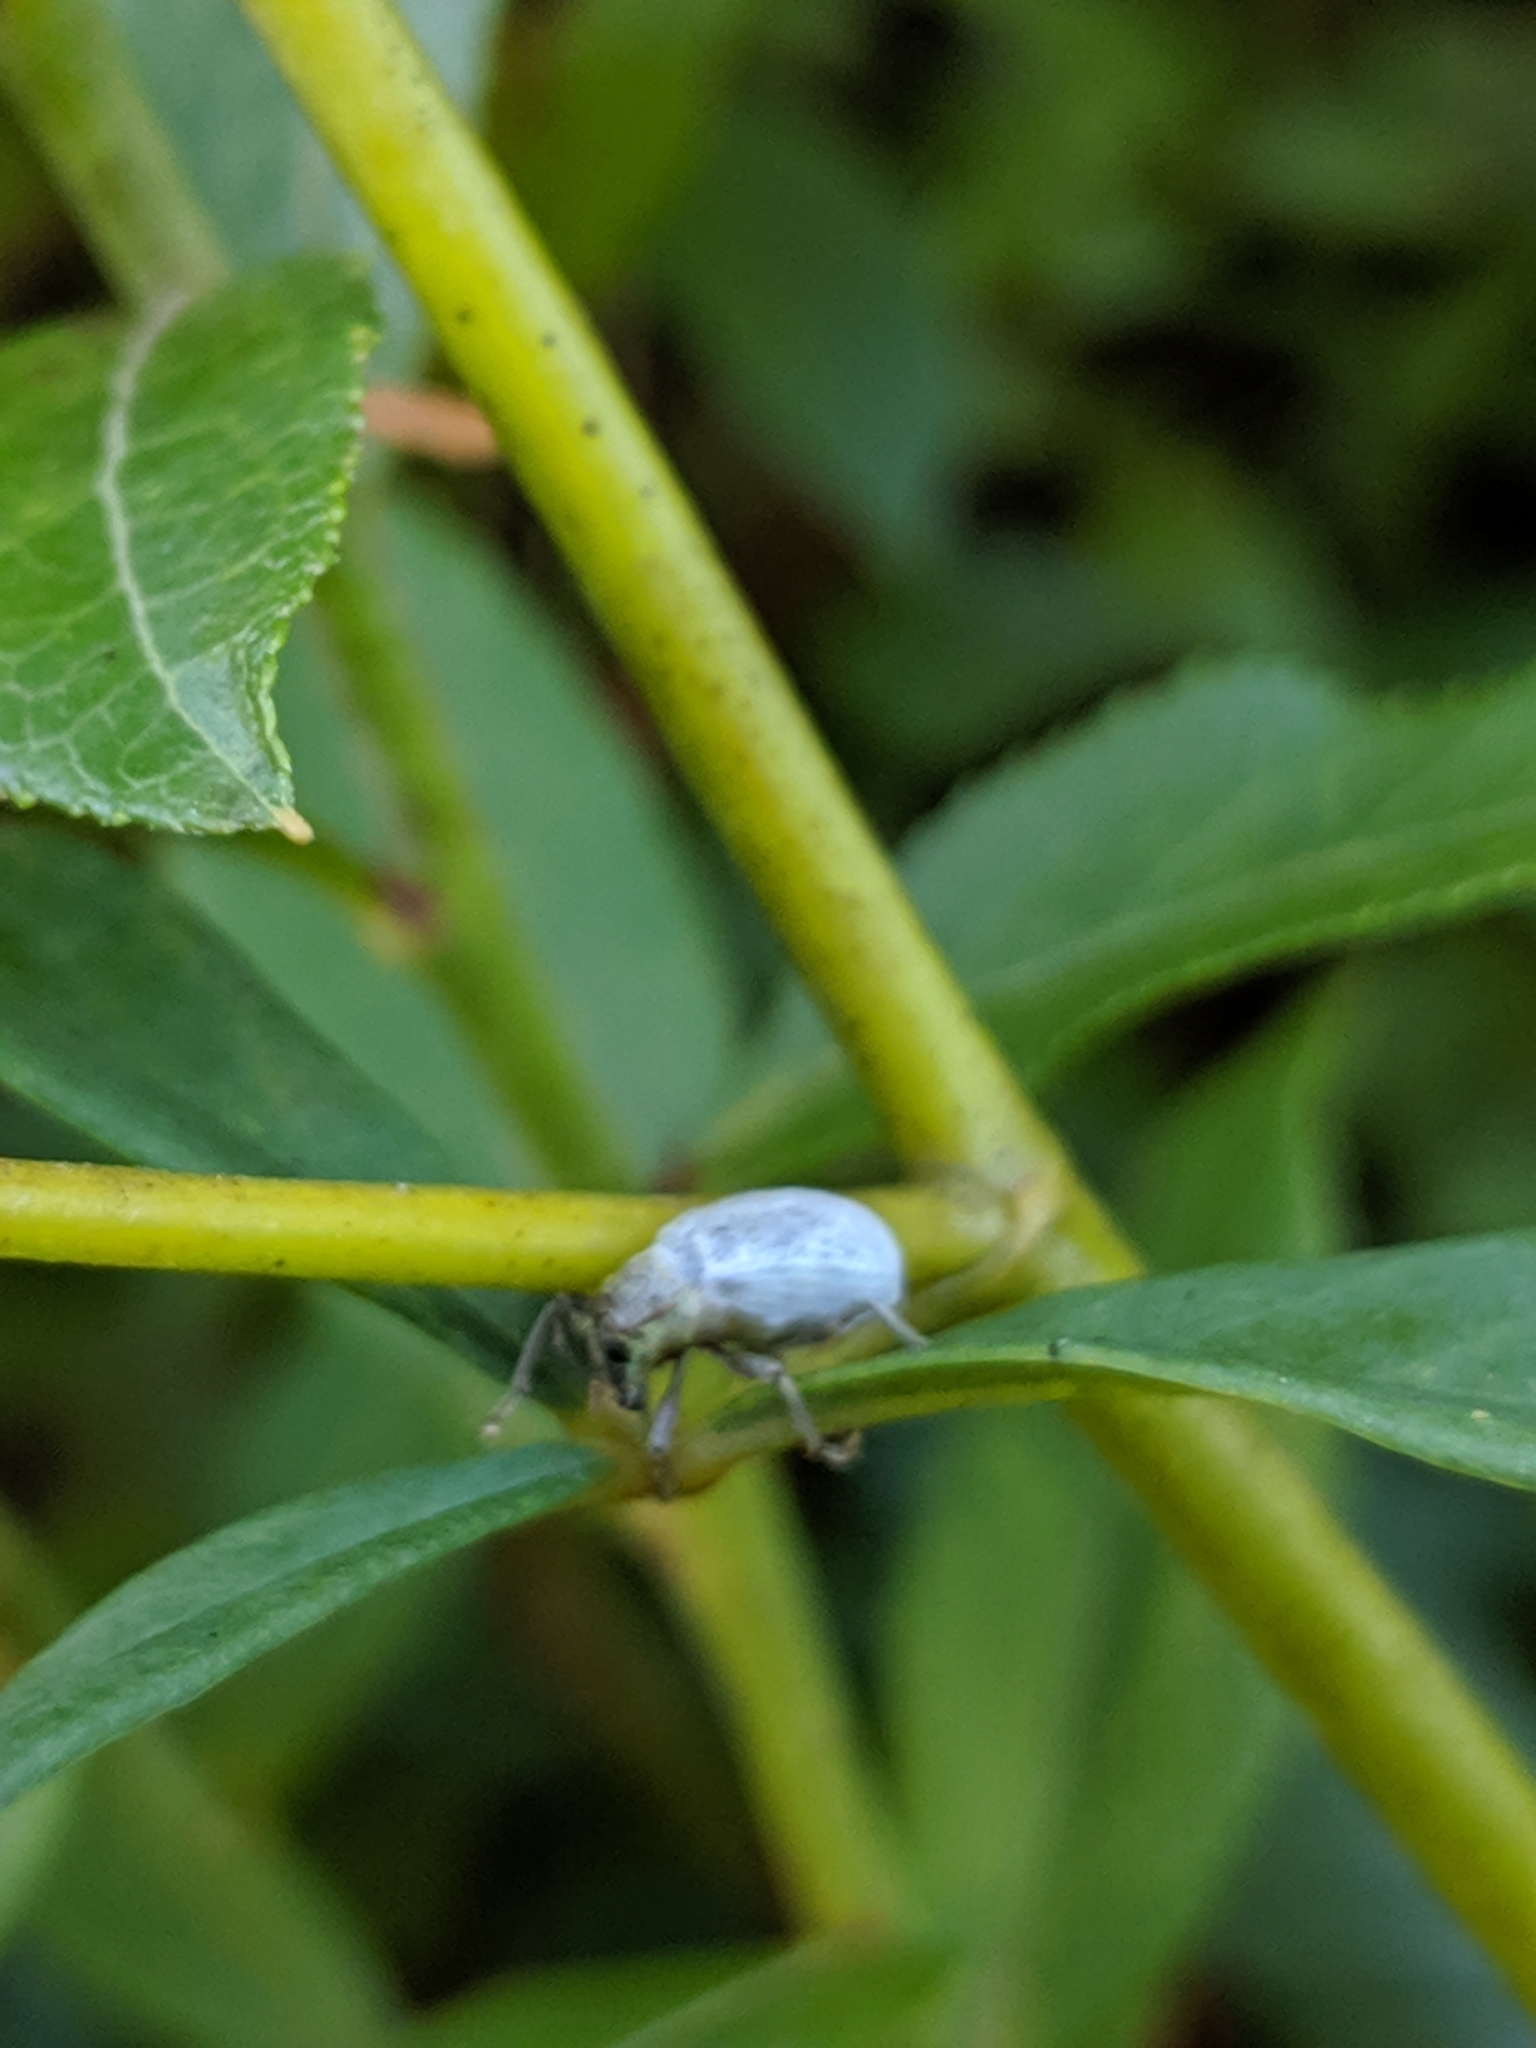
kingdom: Animalia
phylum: Arthropoda
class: Insecta
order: Coleoptera
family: Curculionidae
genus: Cyrtepistomus
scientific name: Cyrtepistomus castaneus
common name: Weevil
